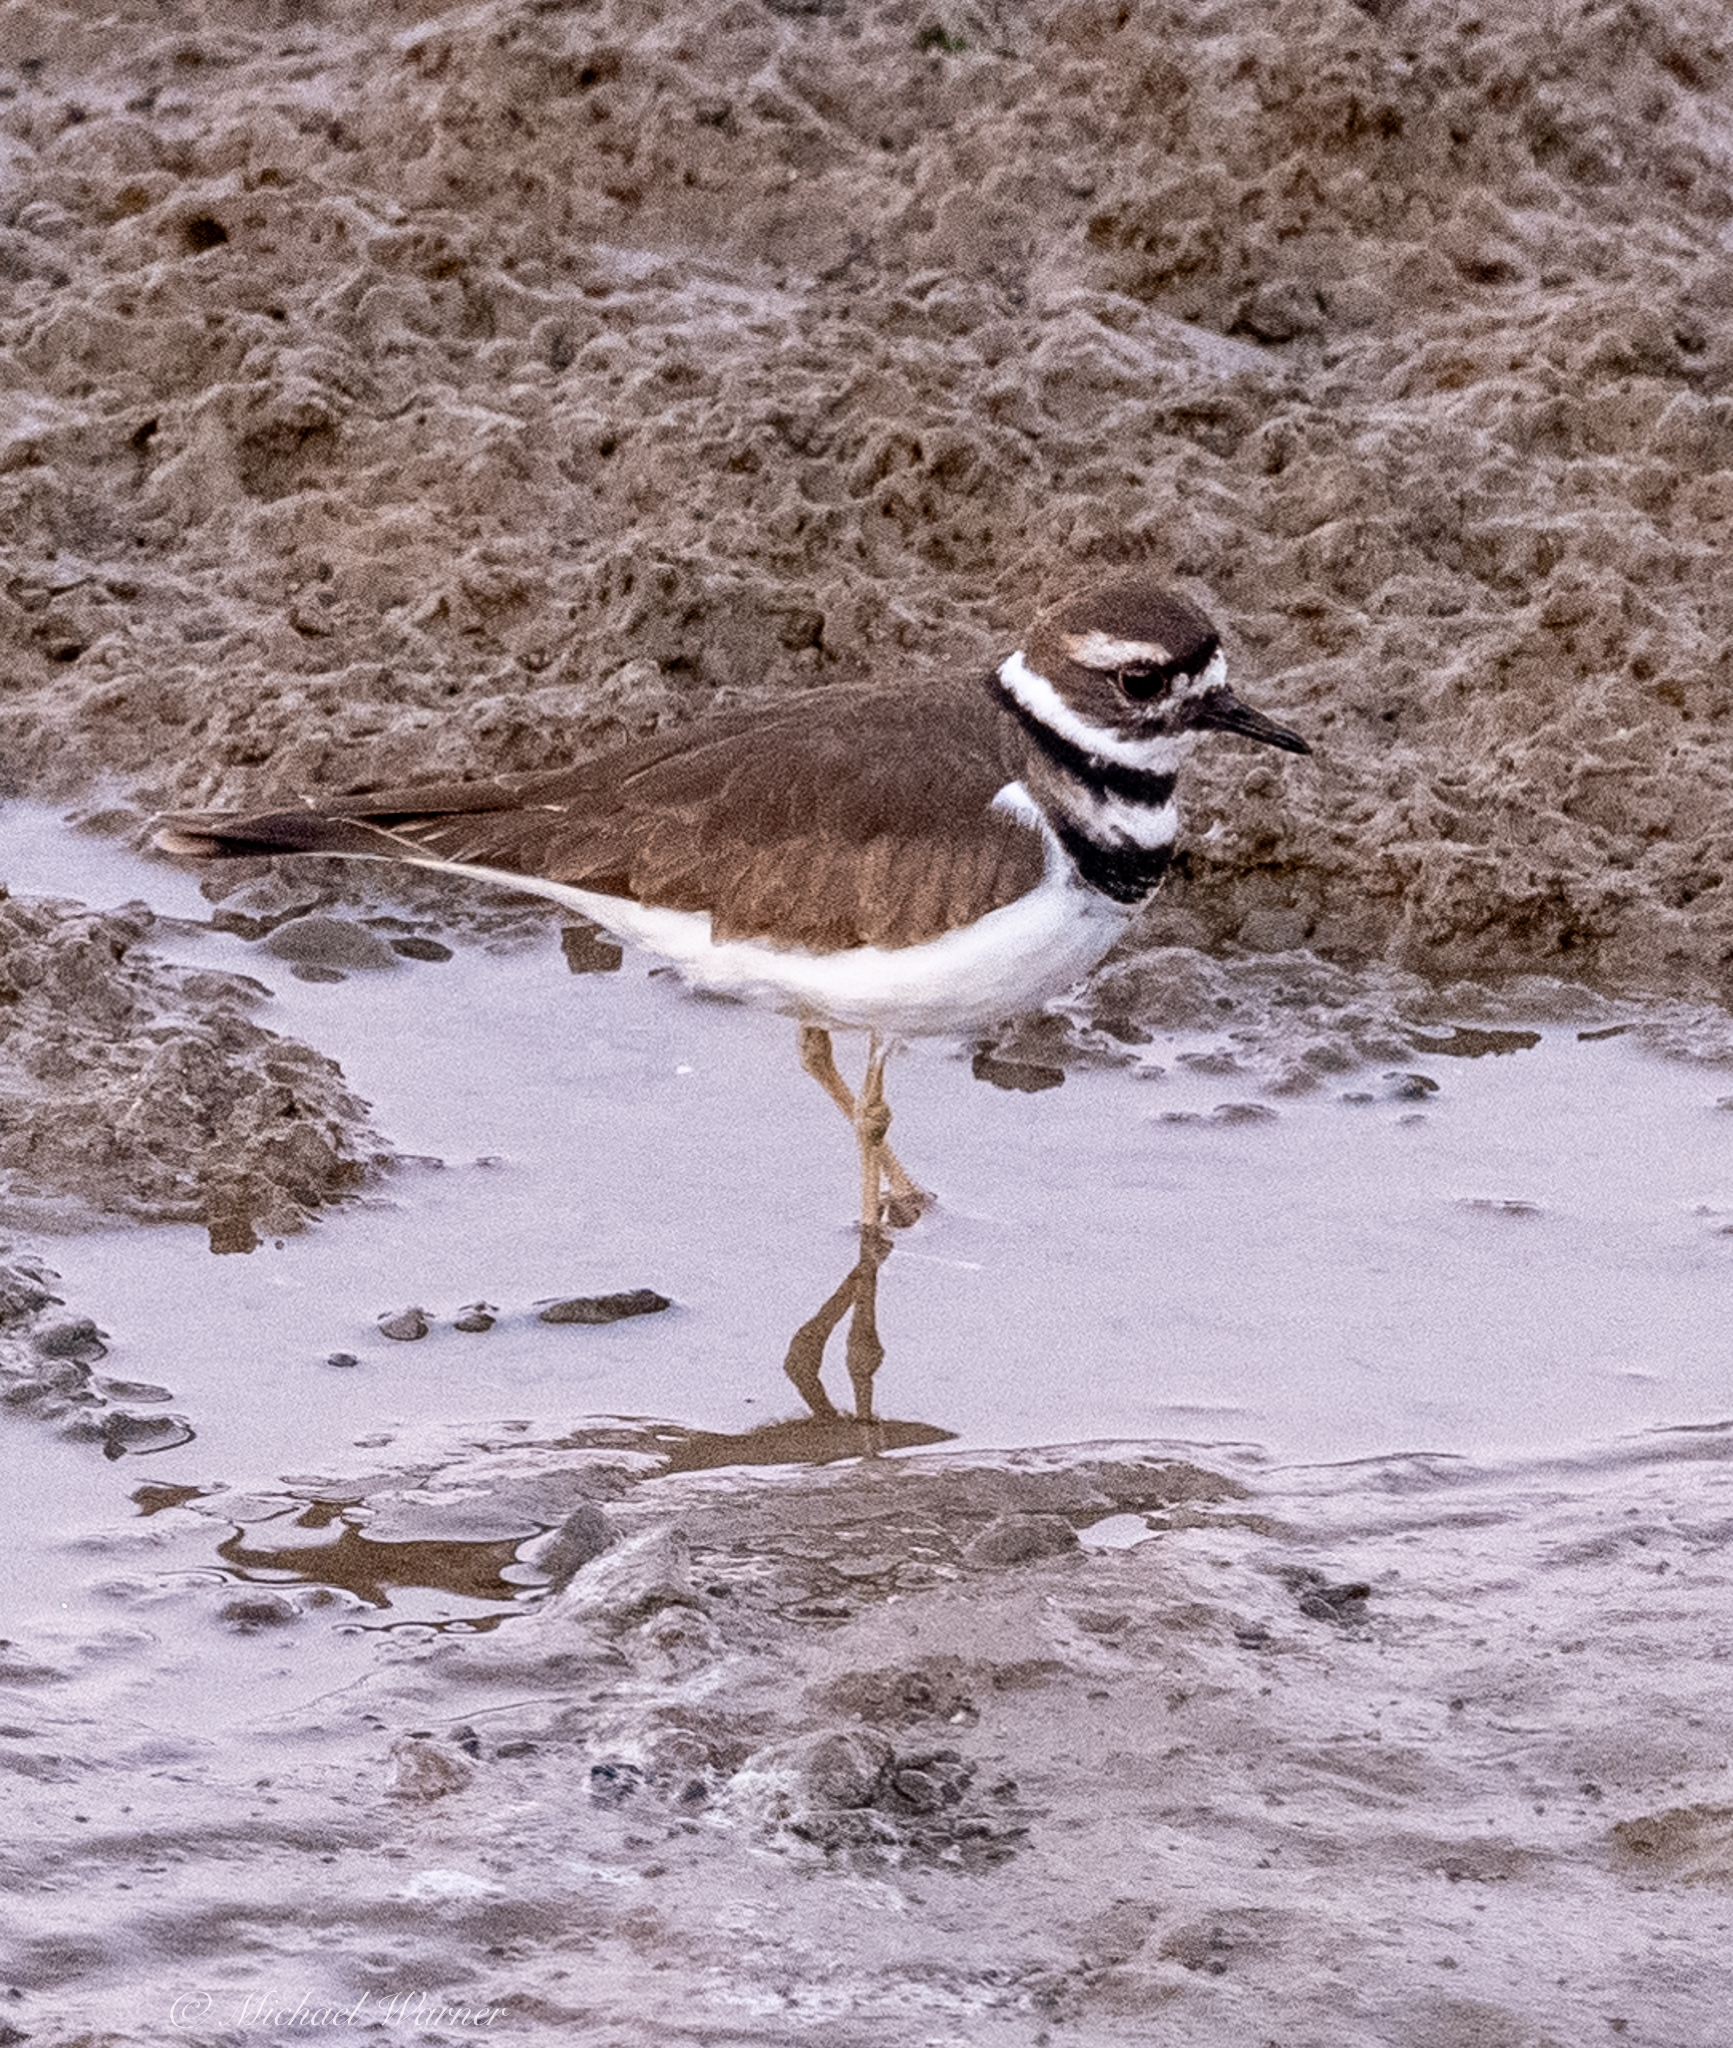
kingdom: Animalia
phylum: Chordata
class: Aves
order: Charadriiformes
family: Charadriidae
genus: Charadrius
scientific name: Charadrius vociferus
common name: Killdeer
